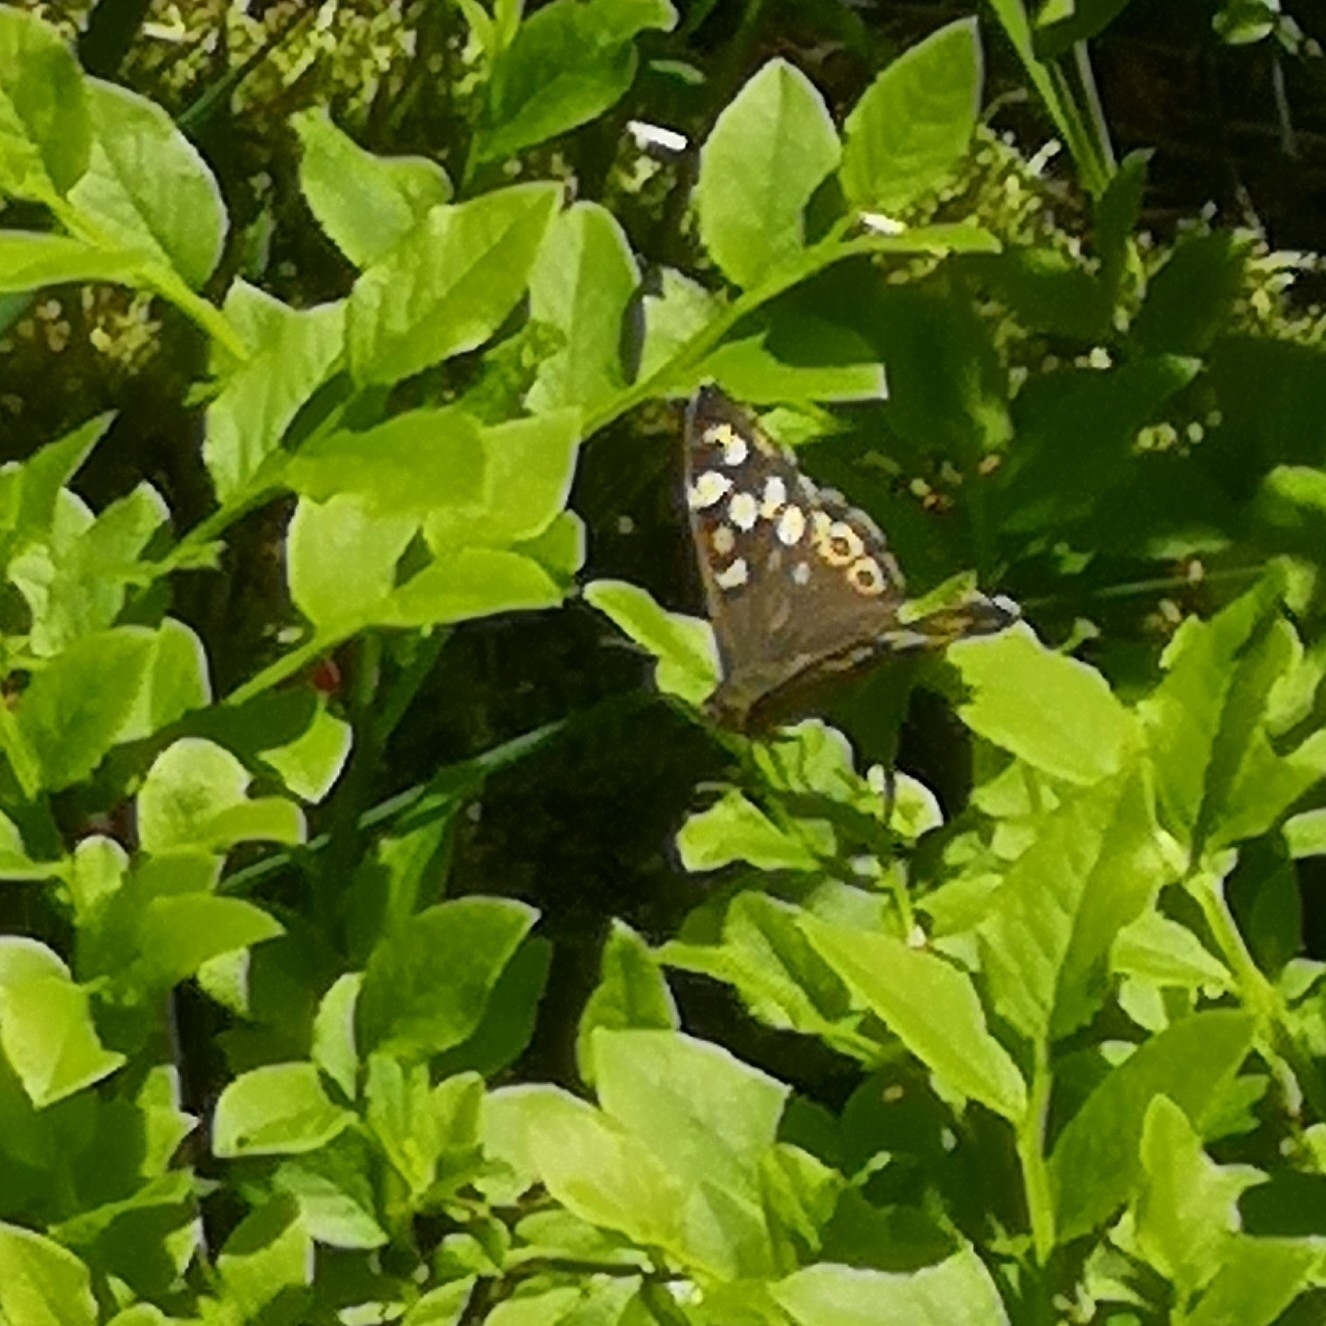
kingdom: Animalia
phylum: Arthropoda
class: Insecta
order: Lepidoptera
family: Nymphalidae
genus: Pararge
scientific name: Pararge aegeria
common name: Speckled wood
